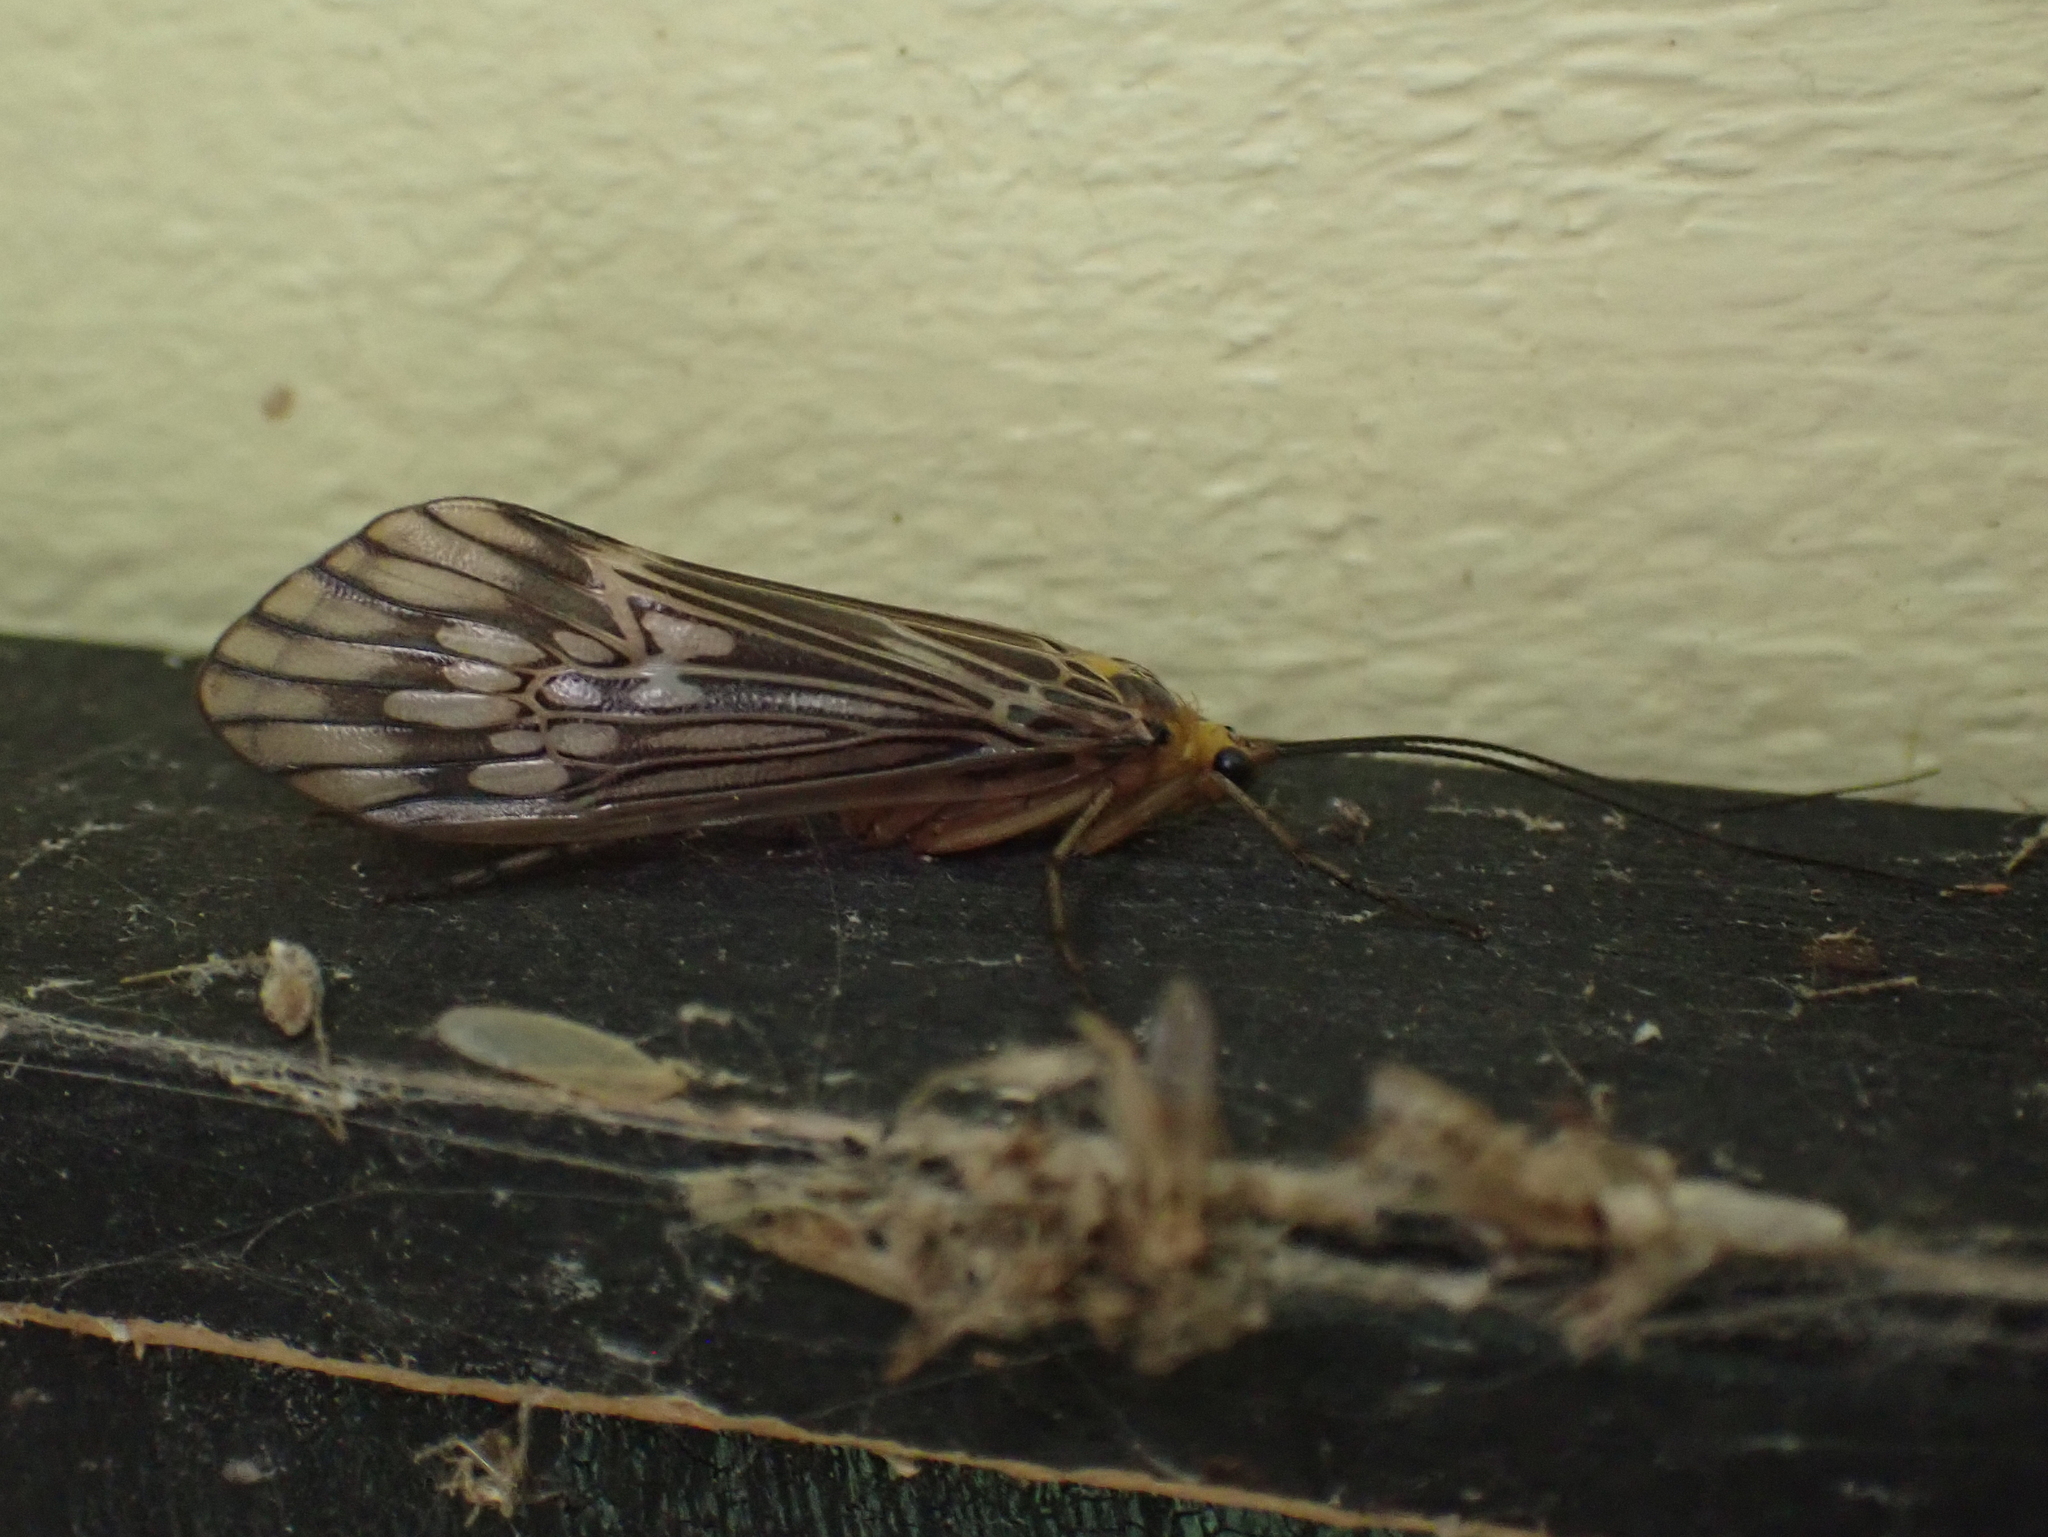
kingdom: Animalia
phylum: Arthropoda
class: Insecta
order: Trichoptera
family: Limnephilidae
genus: Hydatophylax
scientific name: Hydatophylax argus
